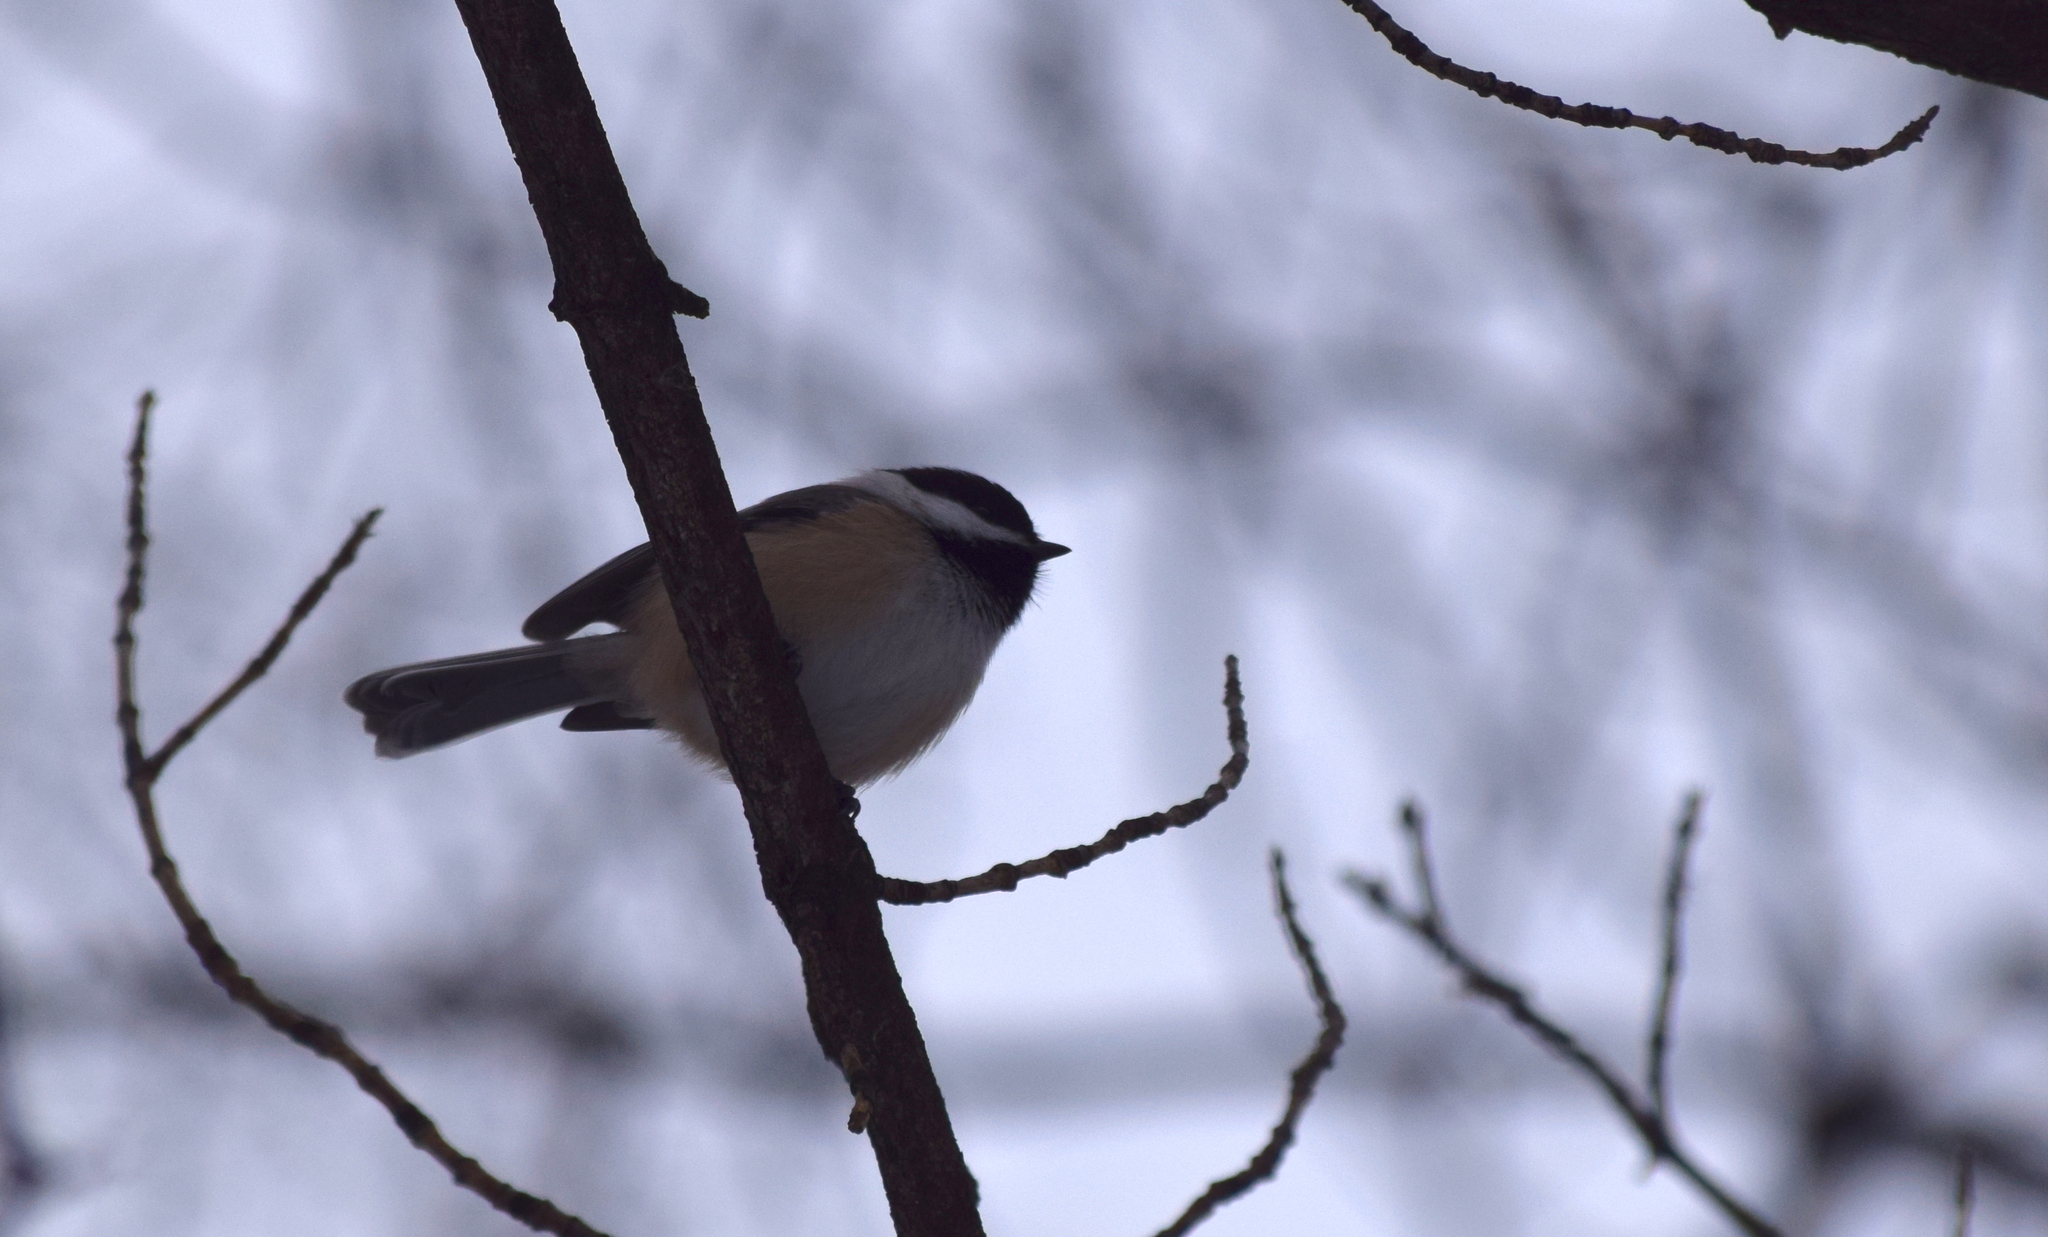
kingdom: Animalia
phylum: Chordata
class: Aves
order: Passeriformes
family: Paridae
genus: Poecile
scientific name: Poecile atricapillus
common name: Black-capped chickadee
